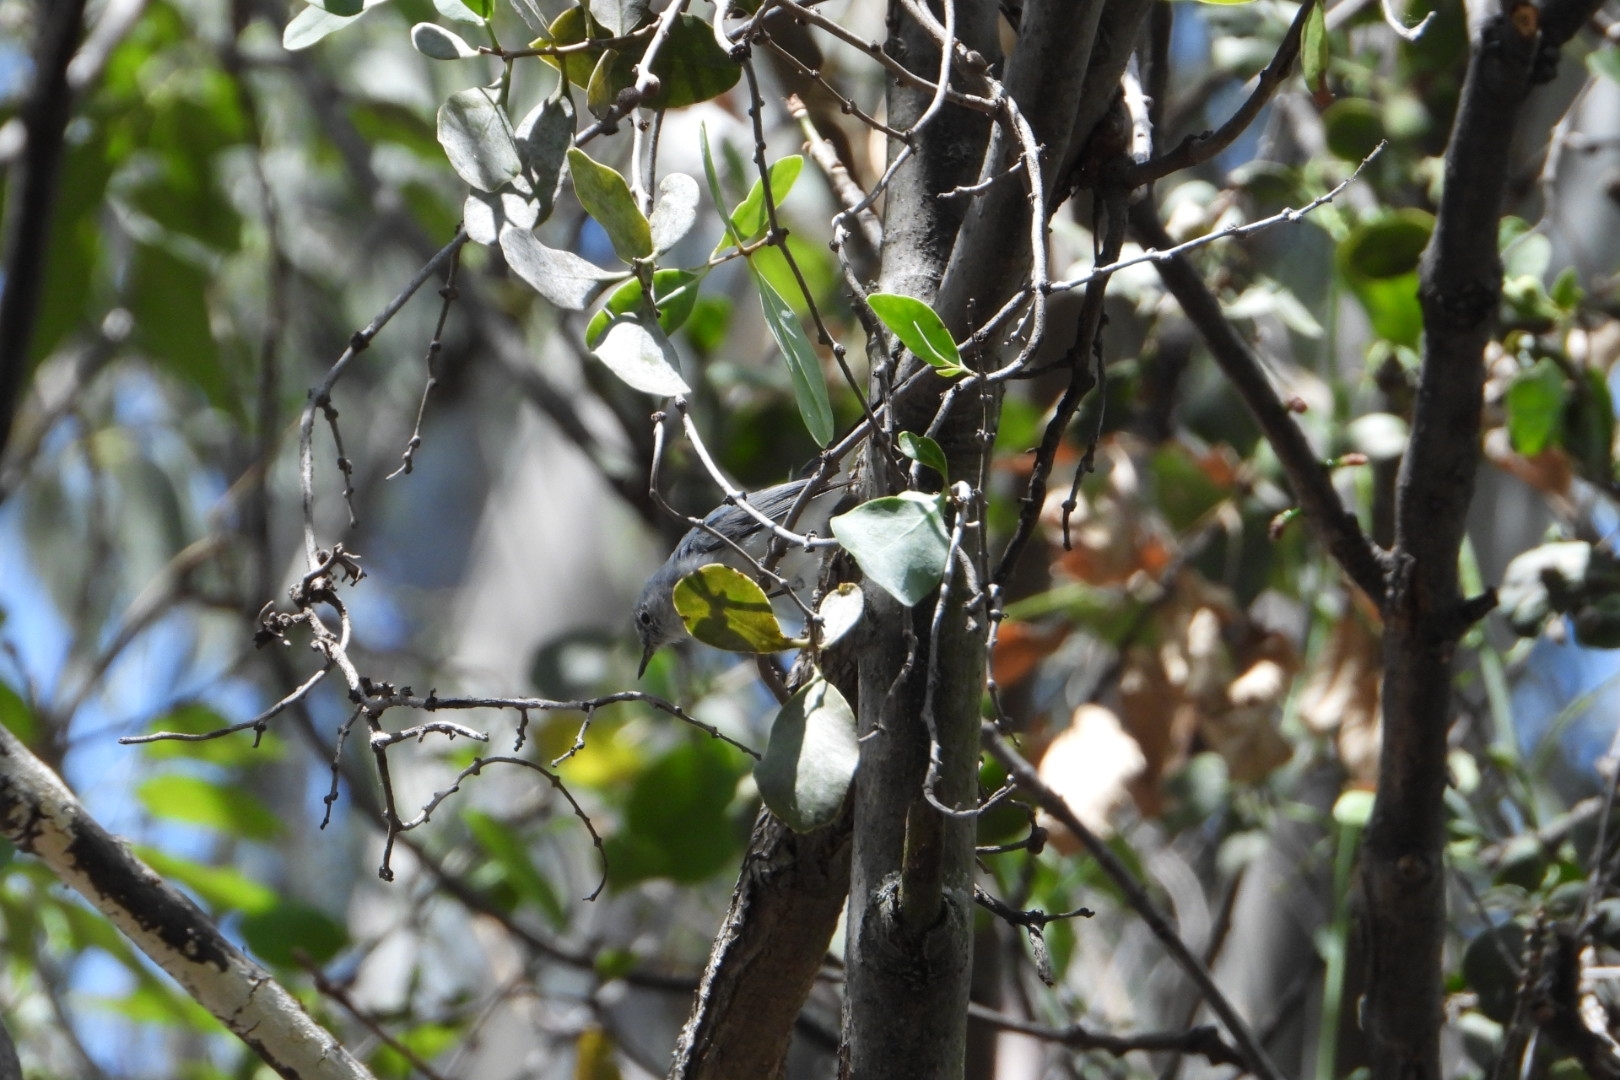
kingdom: Animalia
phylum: Chordata
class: Aves
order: Passeriformes
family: Polioptilidae
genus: Polioptila
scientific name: Polioptila caerulea
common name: Blue-gray gnatcatcher
